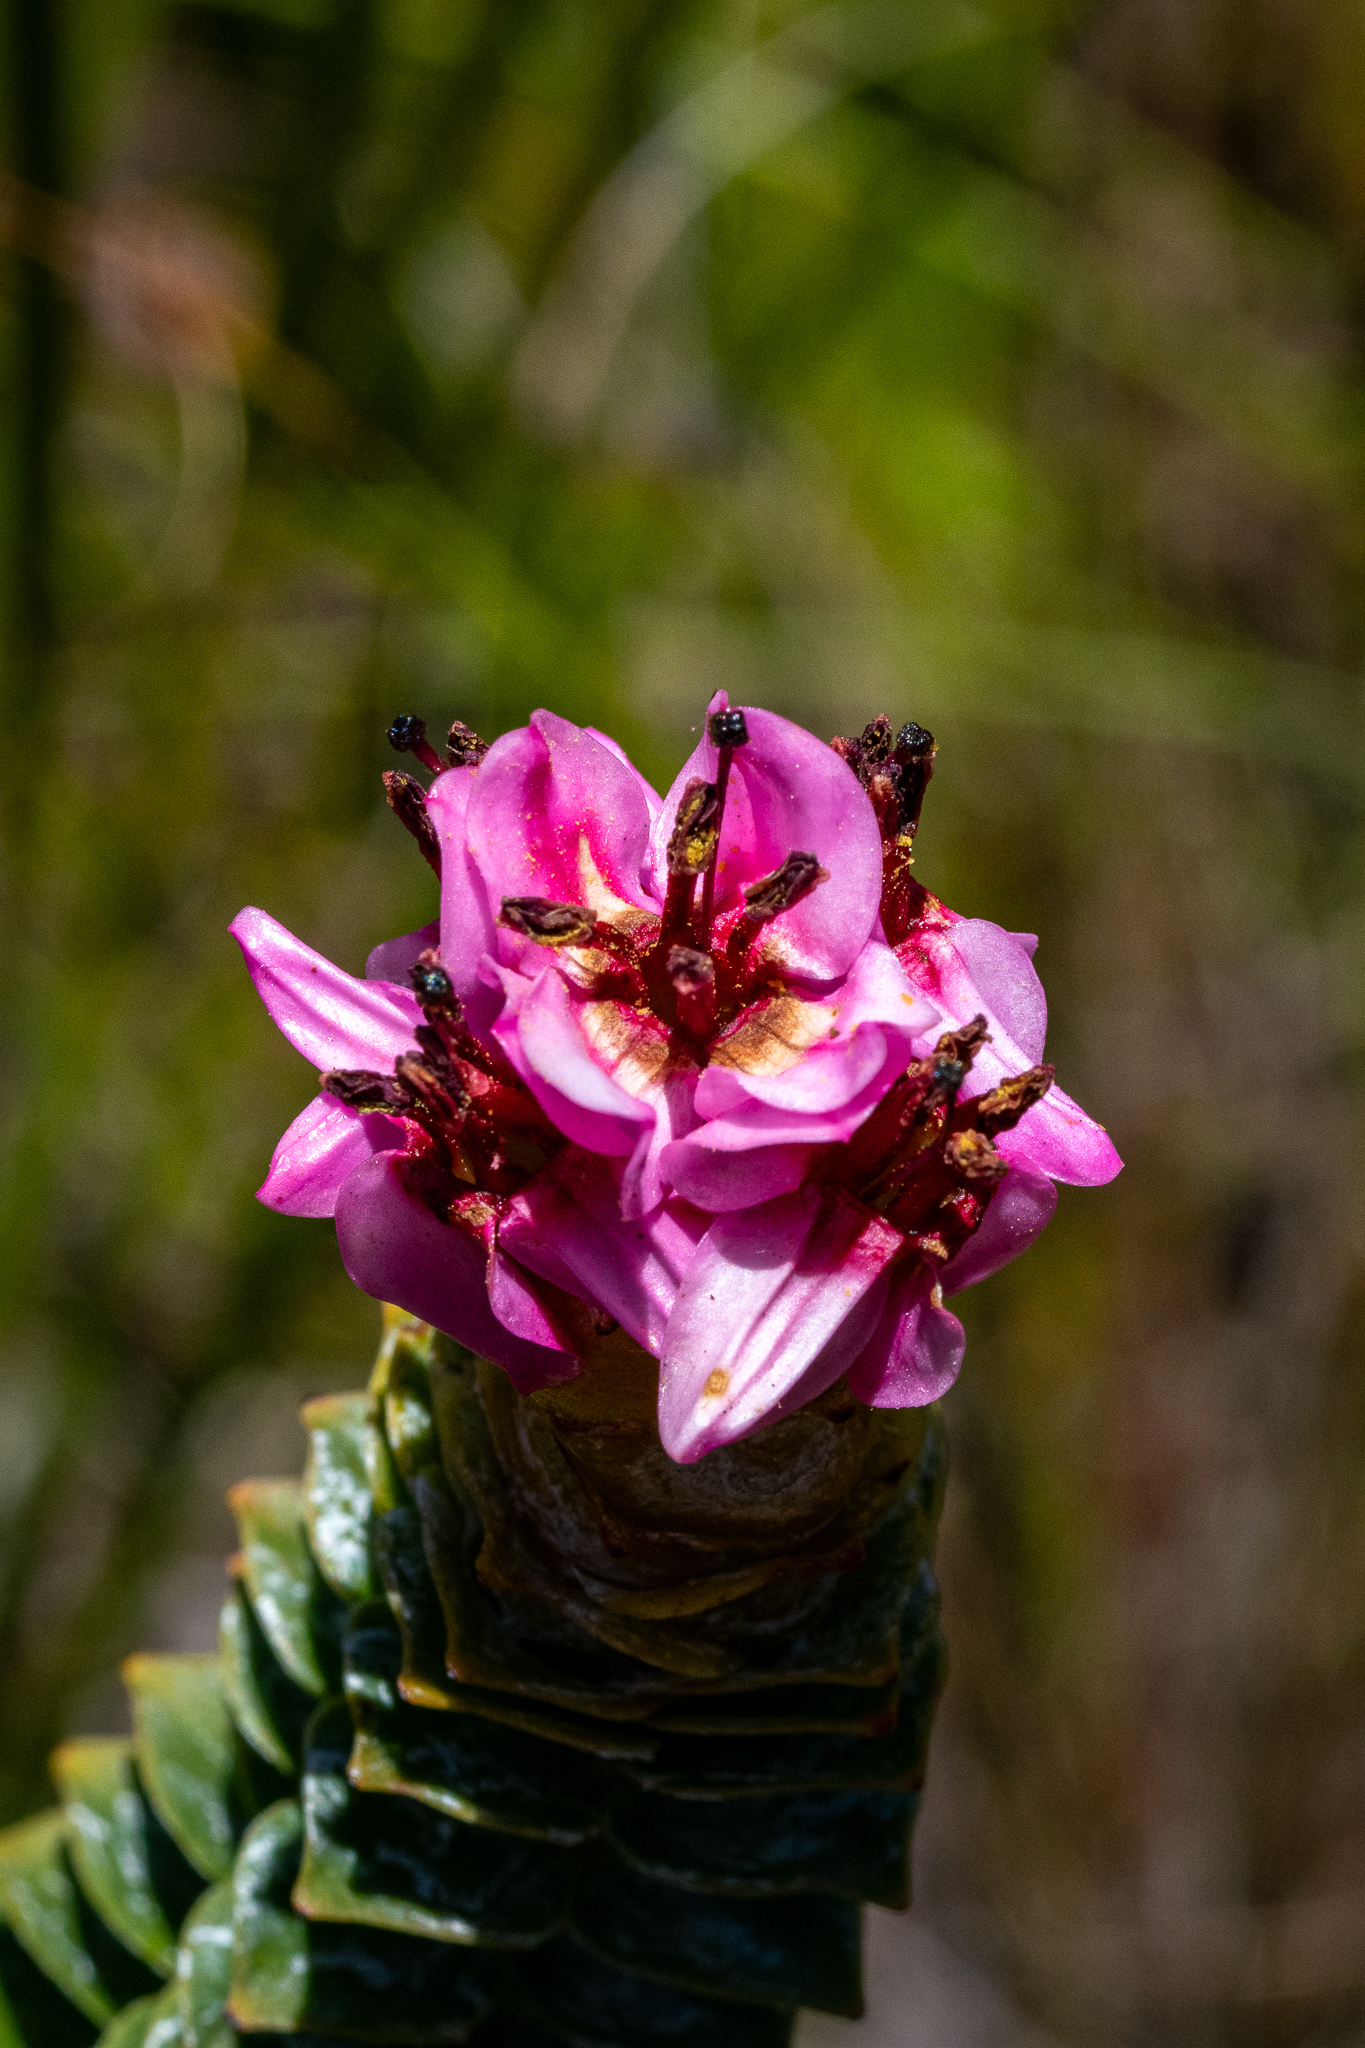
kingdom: Plantae
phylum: Tracheophyta
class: Magnoliopsida
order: Myrtales
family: Penaeaceae
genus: Saltera
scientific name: Saltera sarcocolla
